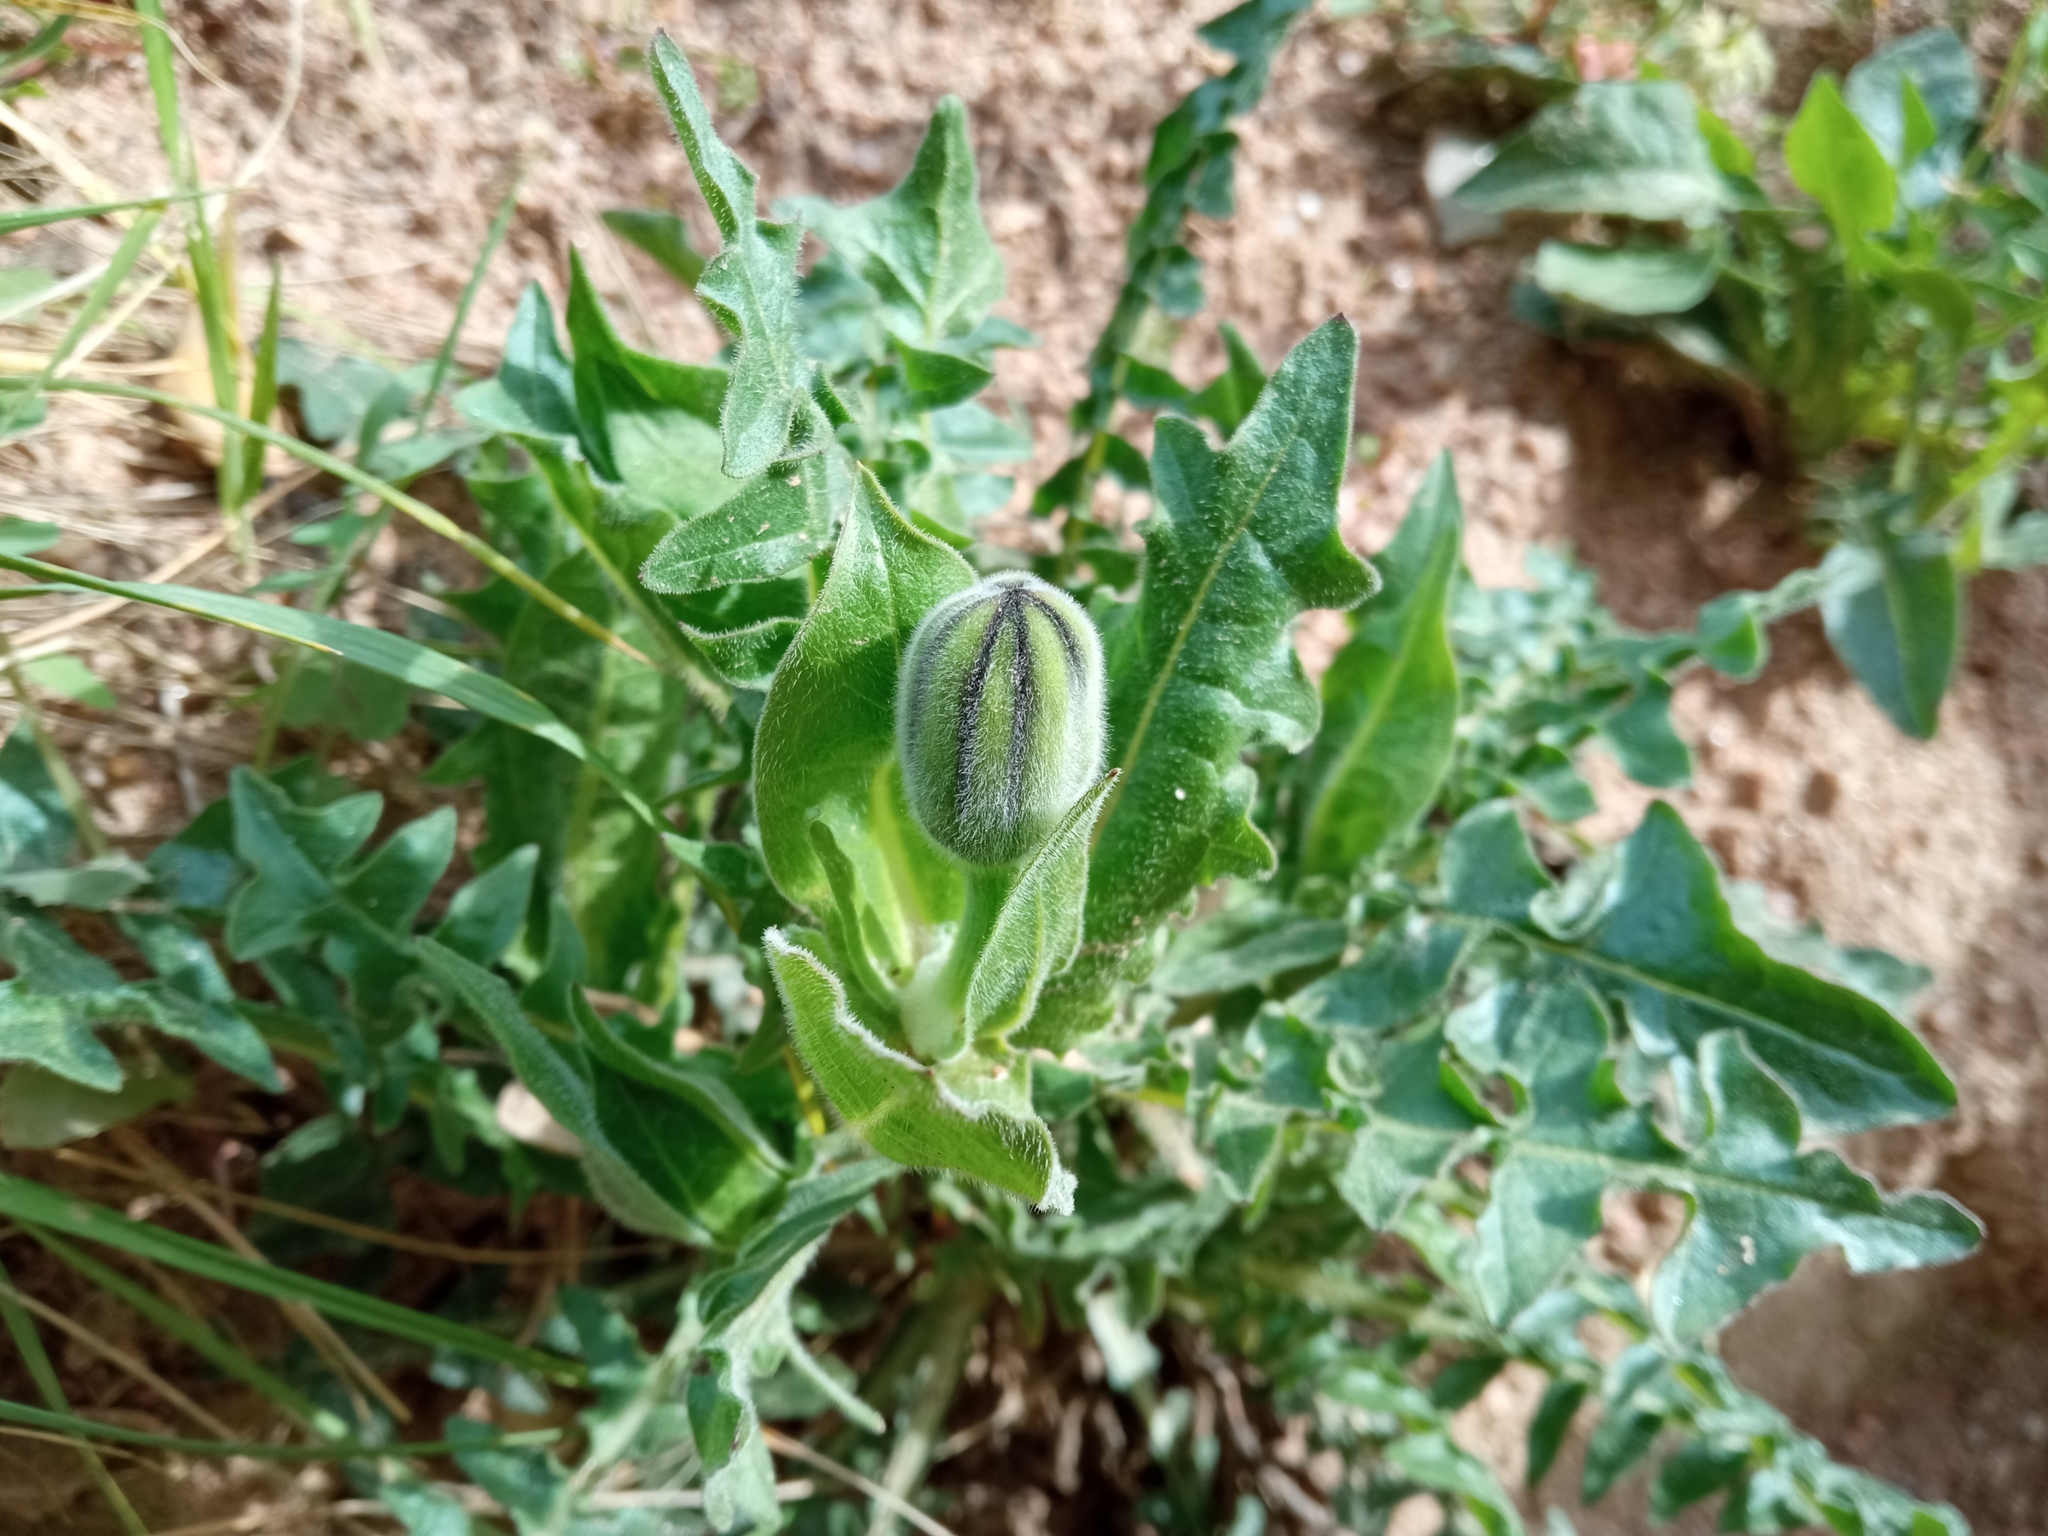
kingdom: Plantae
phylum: Tracheophyta
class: Magnoliopsida
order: Asterales
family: Asteraceae
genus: Urospermum
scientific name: Urospermum dalechampii
